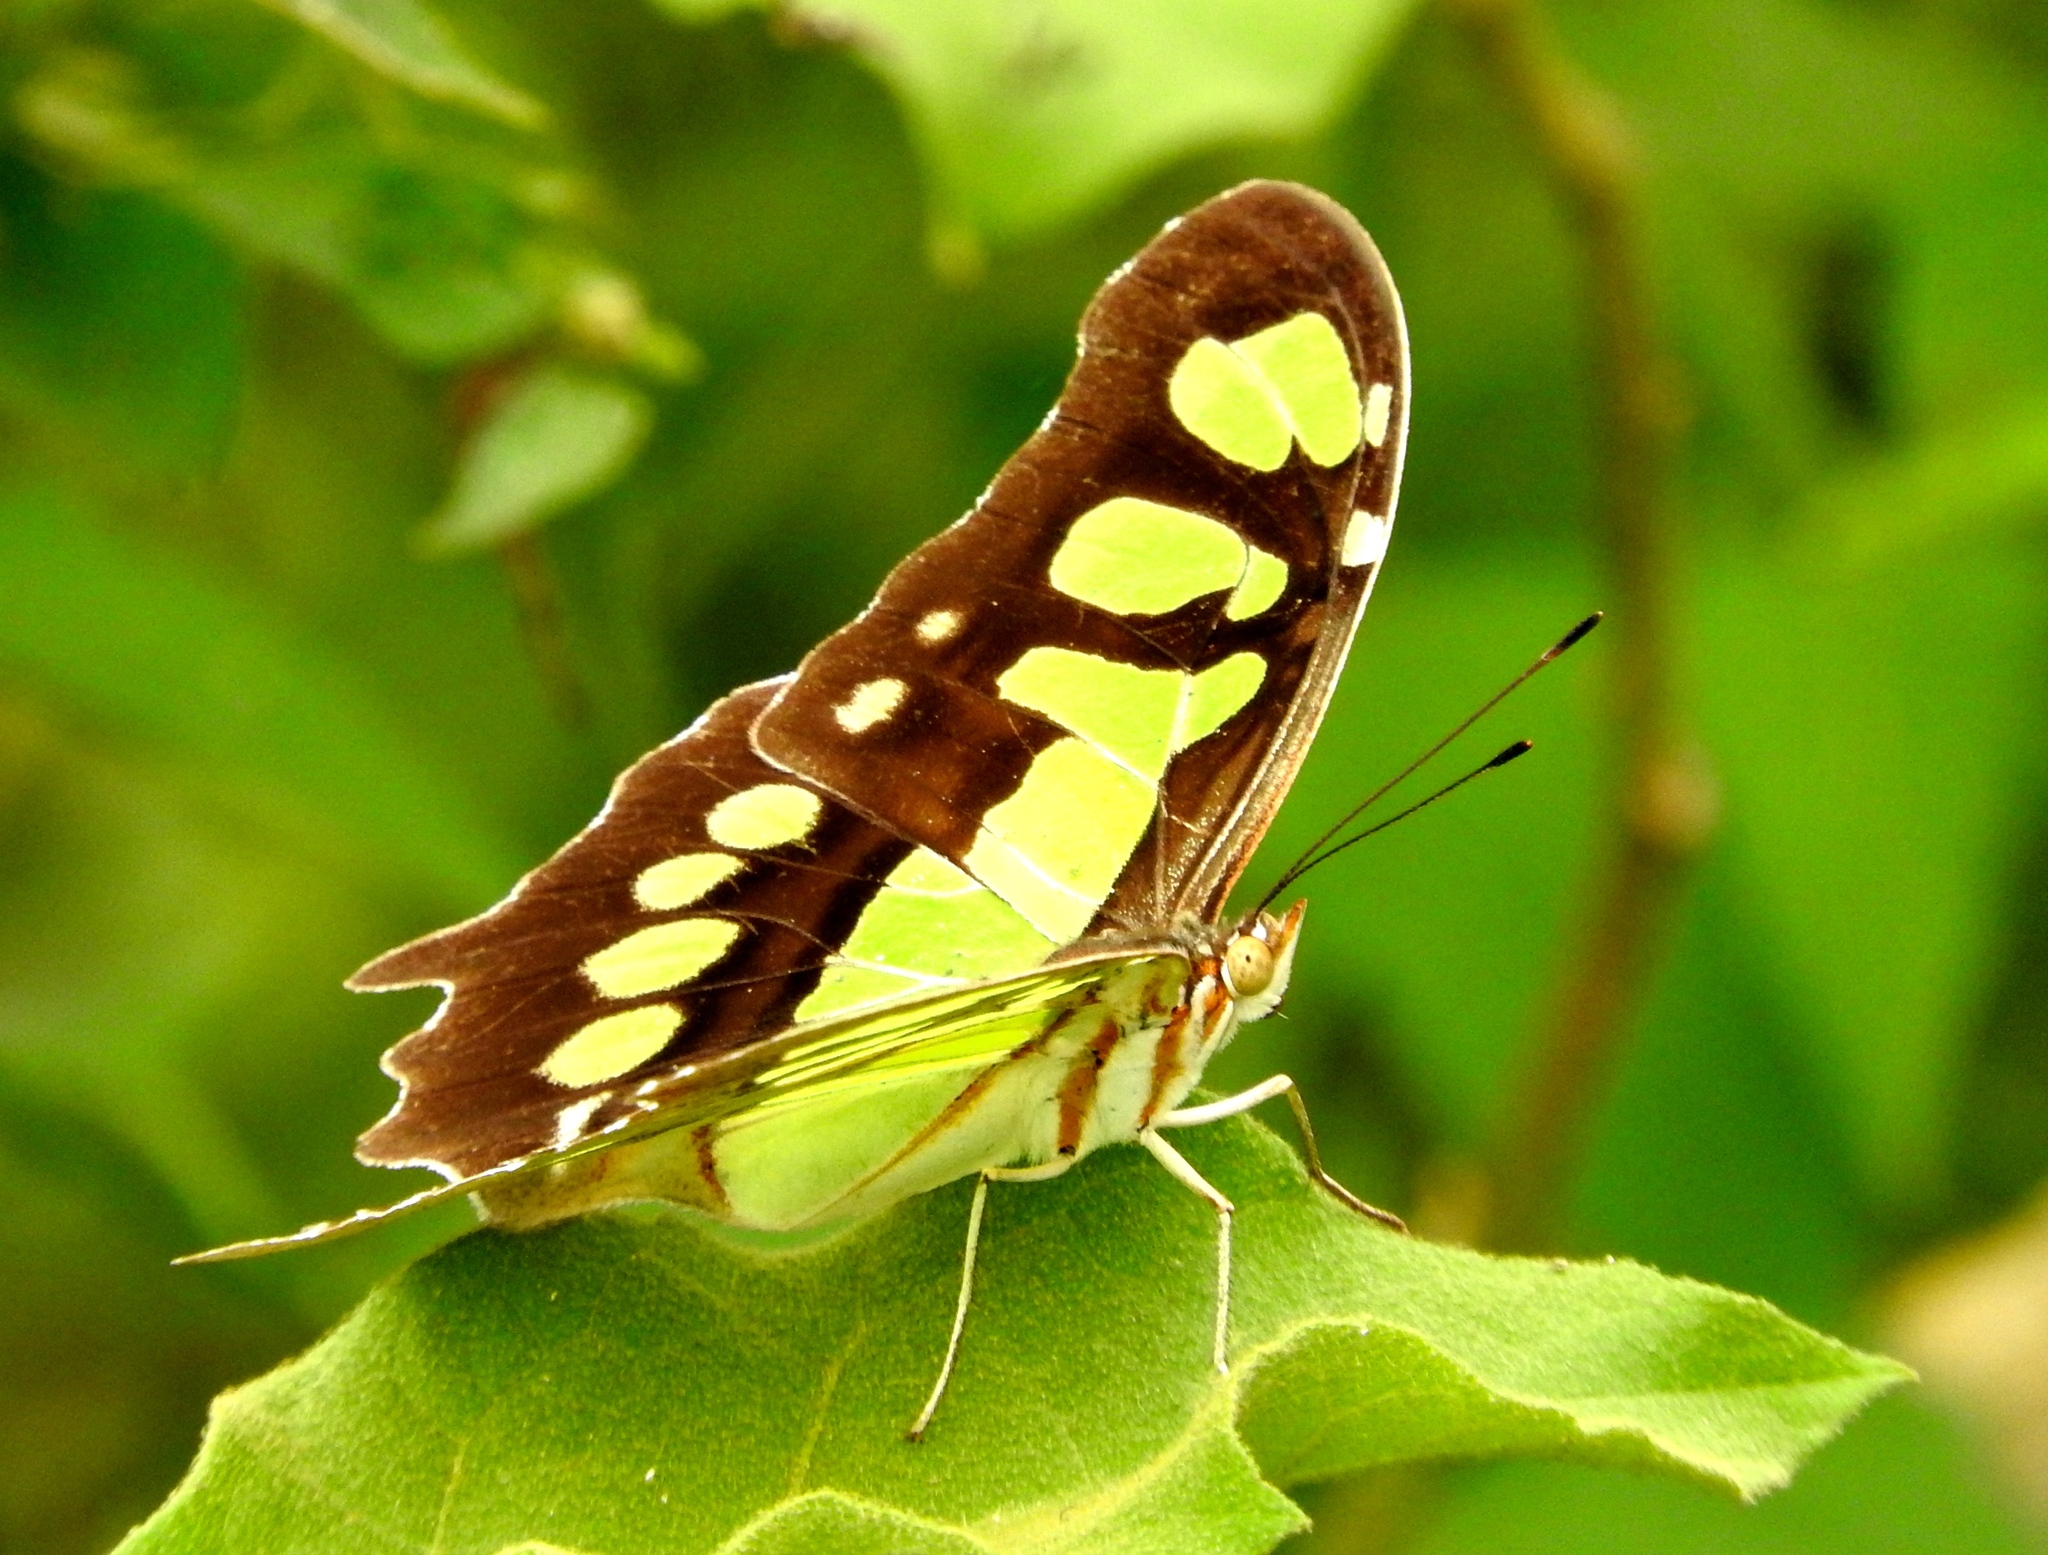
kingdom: Animalia
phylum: Arthropoda
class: Insecta
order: Lepidoptera
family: Nymphalidae
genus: Siproeta
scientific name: Siproeta stelenes
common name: Malachite
